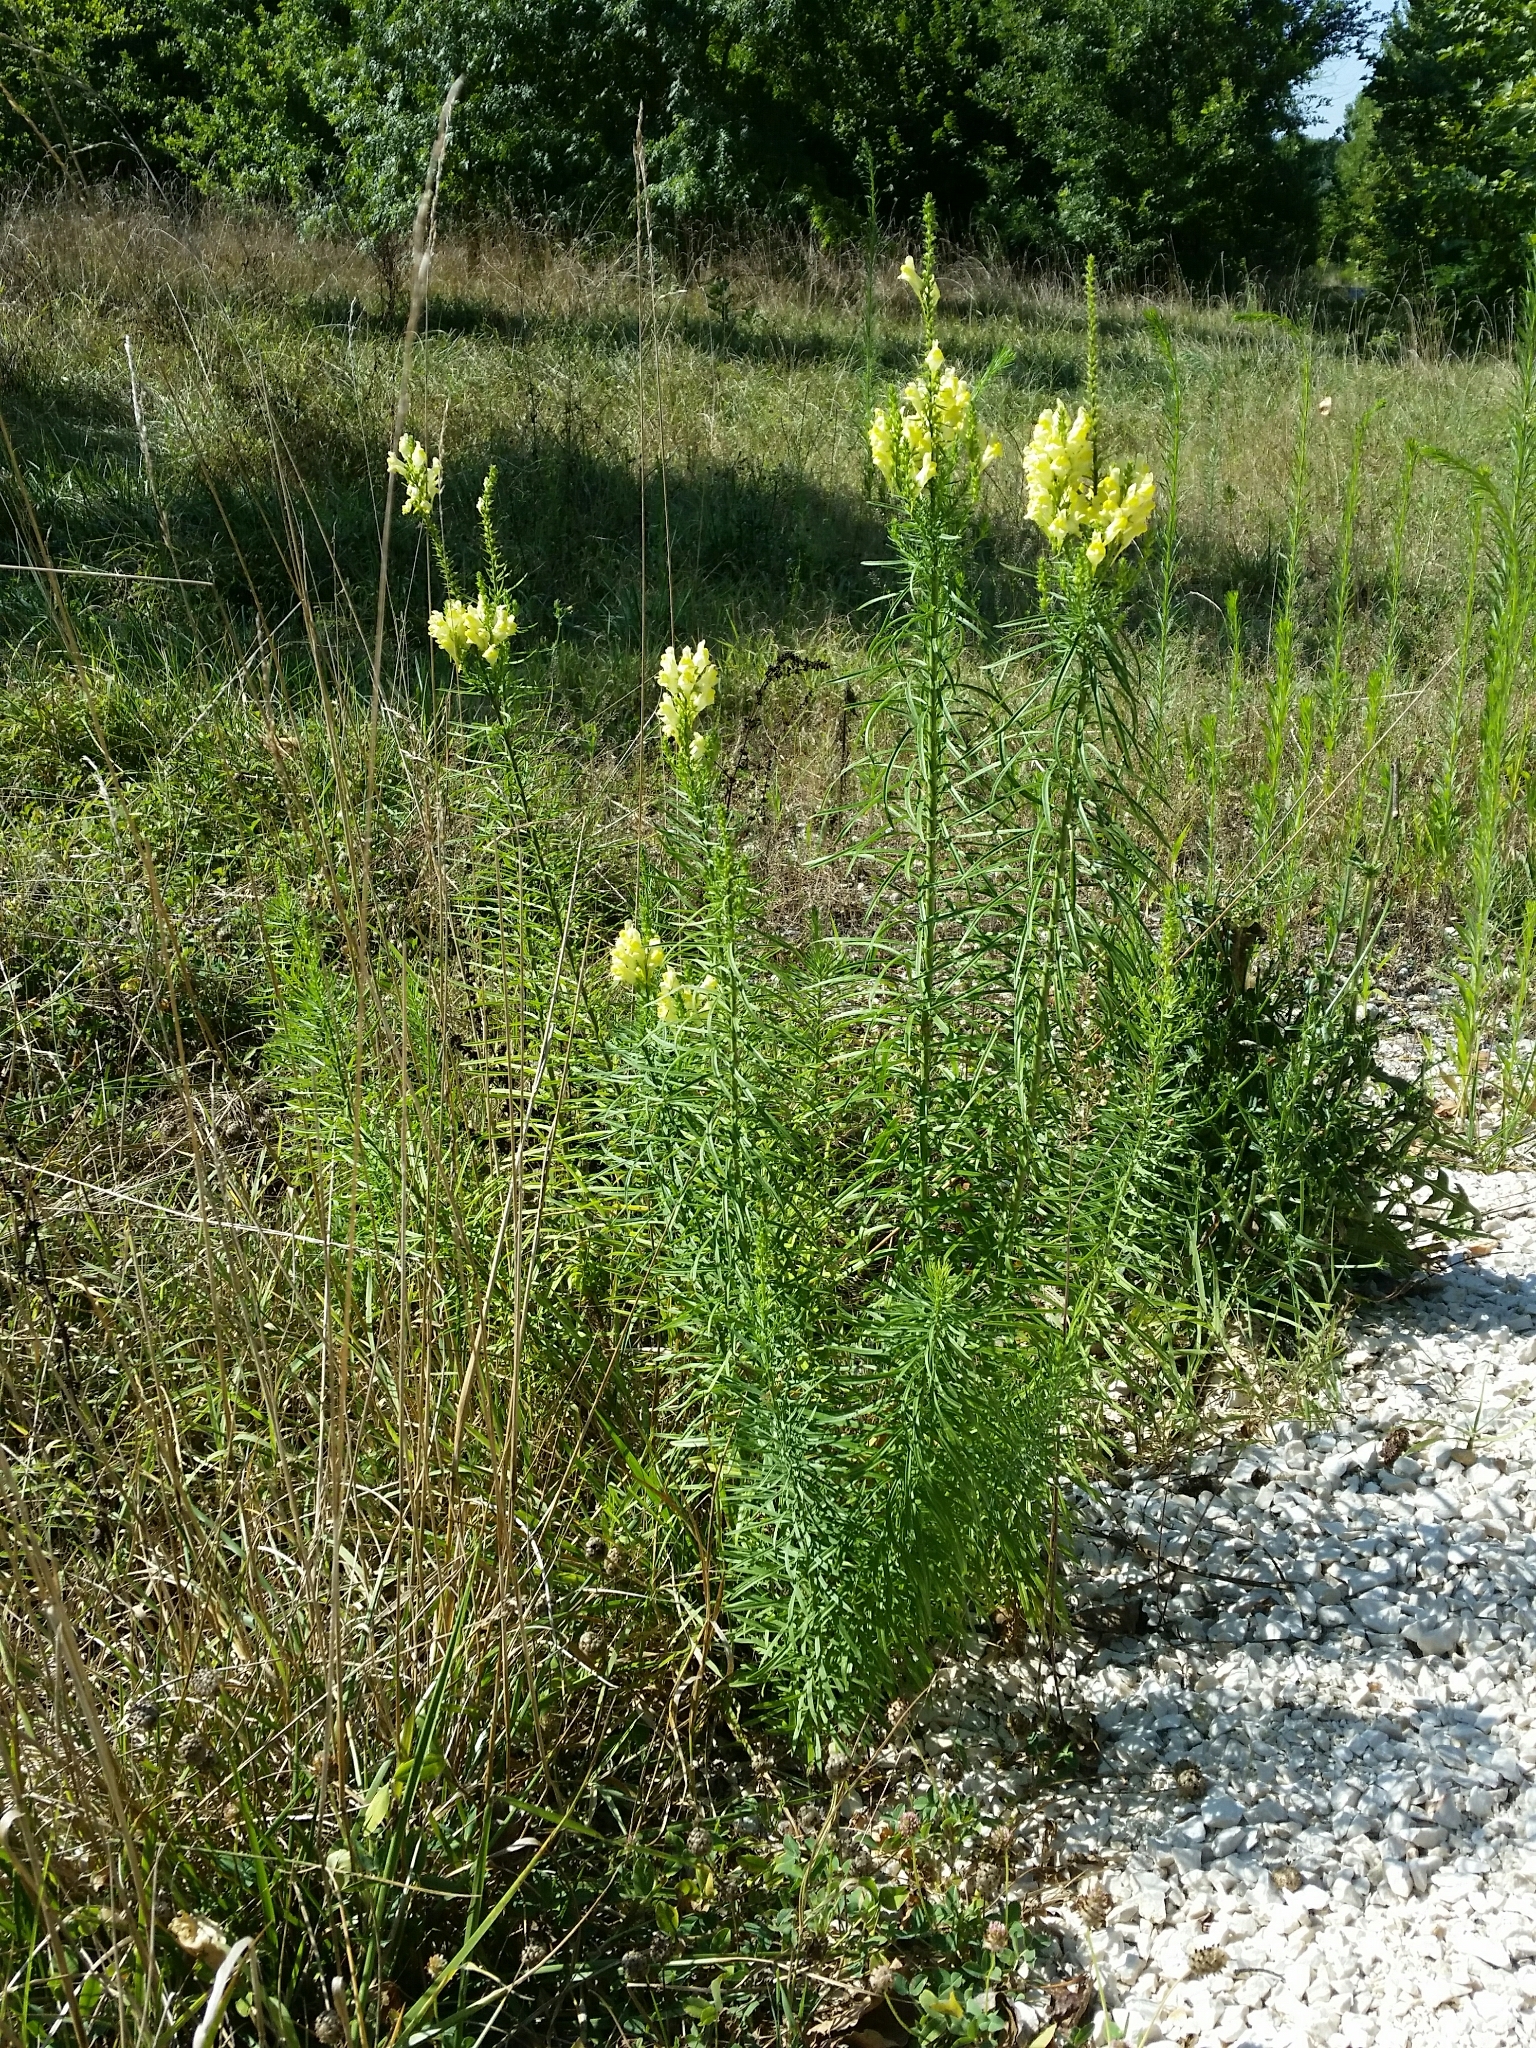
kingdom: Plantae
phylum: Tracheophyta
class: Magnoliopsida
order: Lamiales
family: Plantaginaceae
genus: Linaria
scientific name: Linaria vulgaris
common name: Butter and eggs
